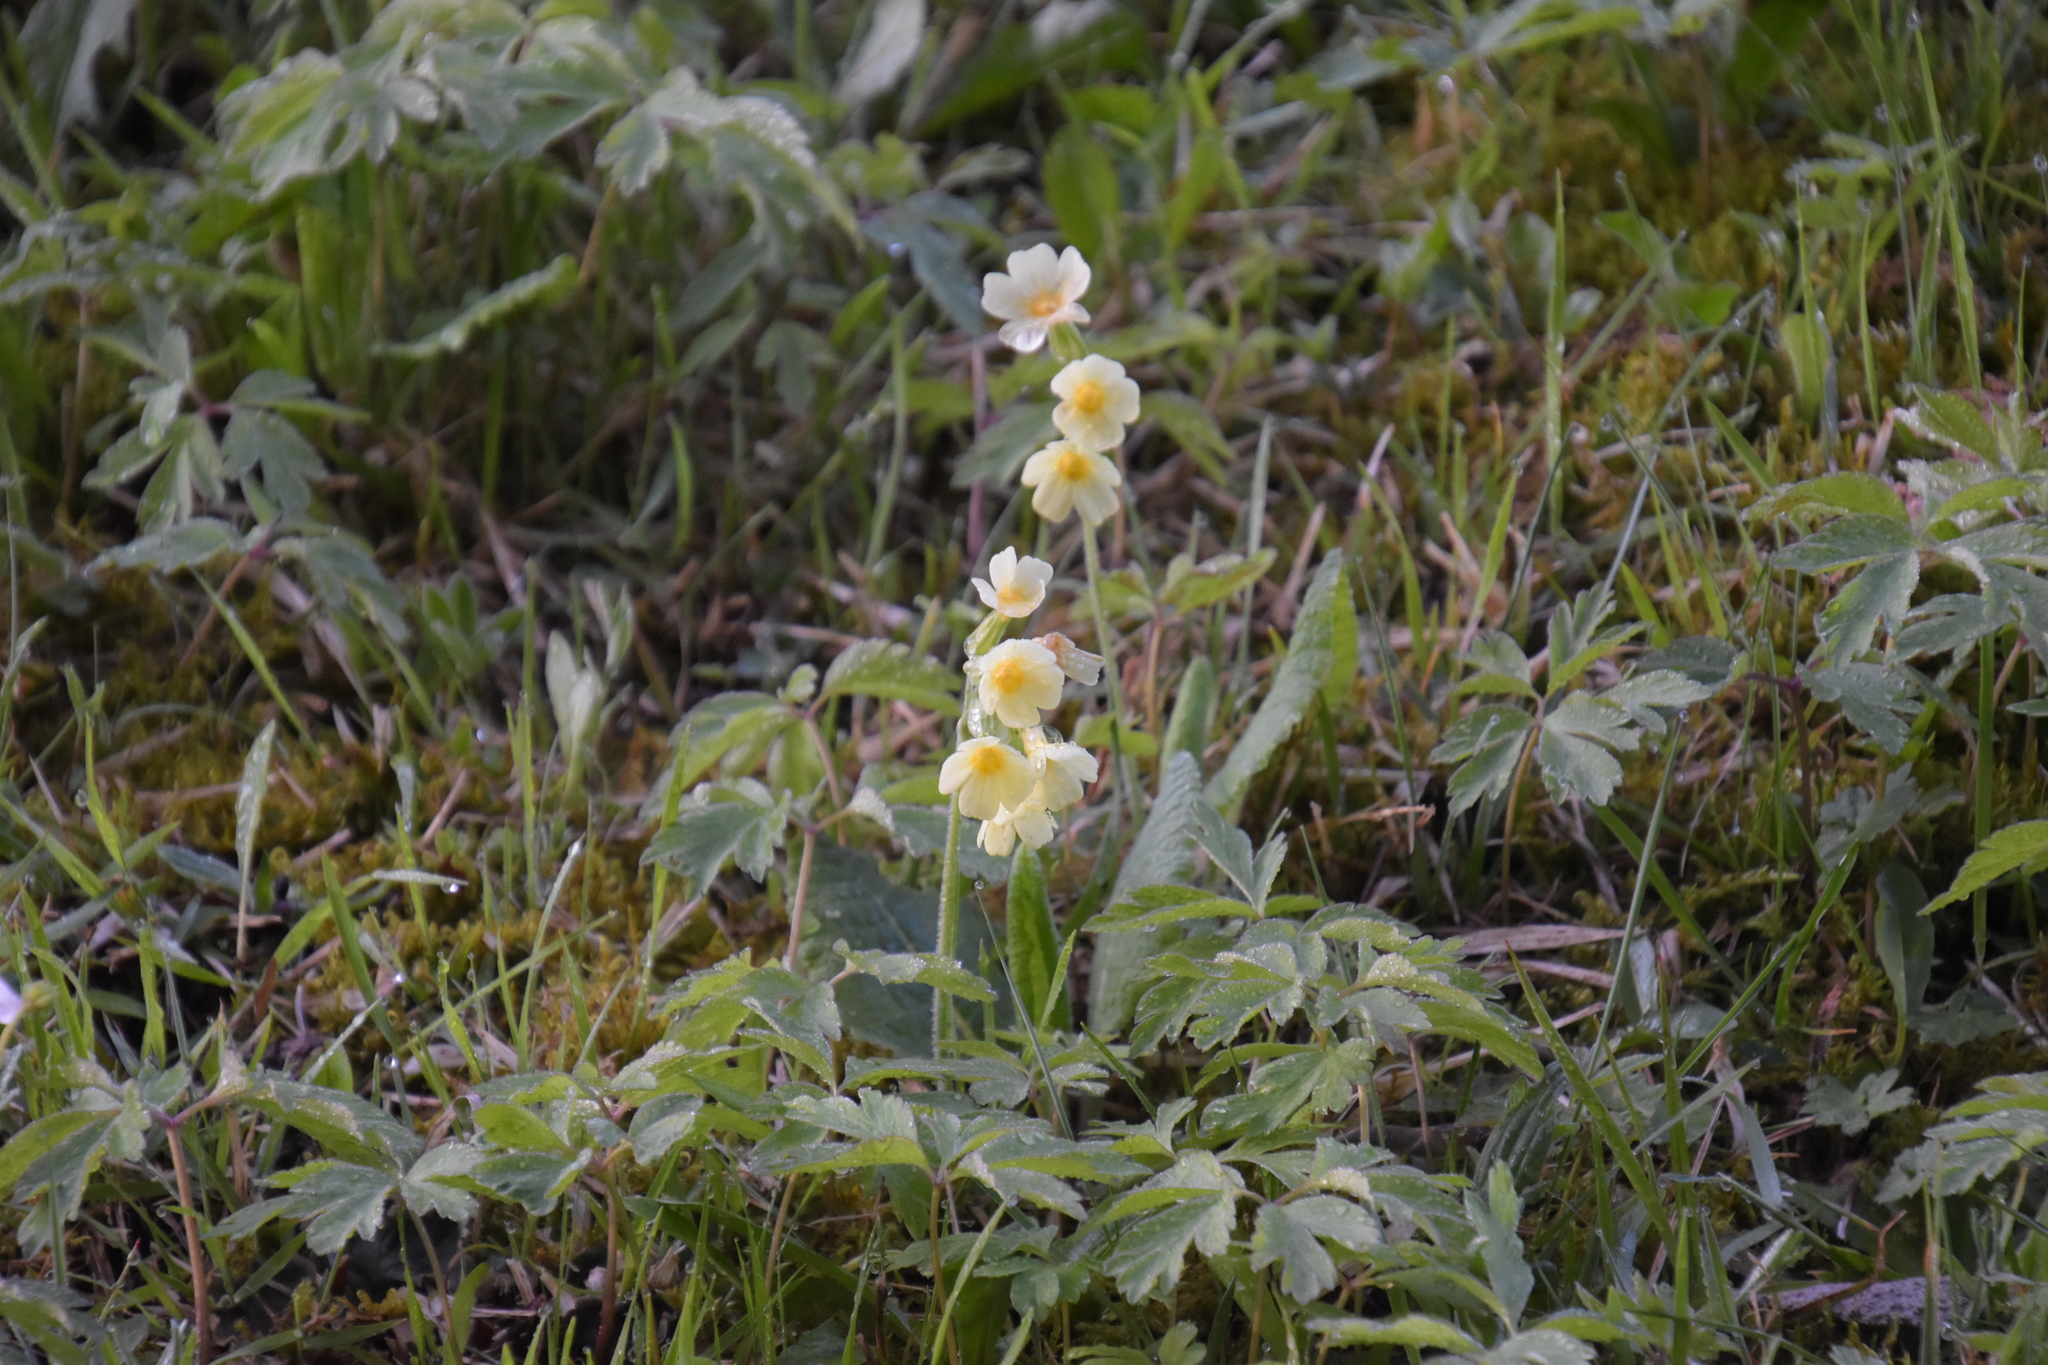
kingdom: Plantae
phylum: Tracheophyta
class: Magnoliopsida
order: Ericales
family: Primulaceae
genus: Primula
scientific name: Primula elatior
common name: Oxlip
